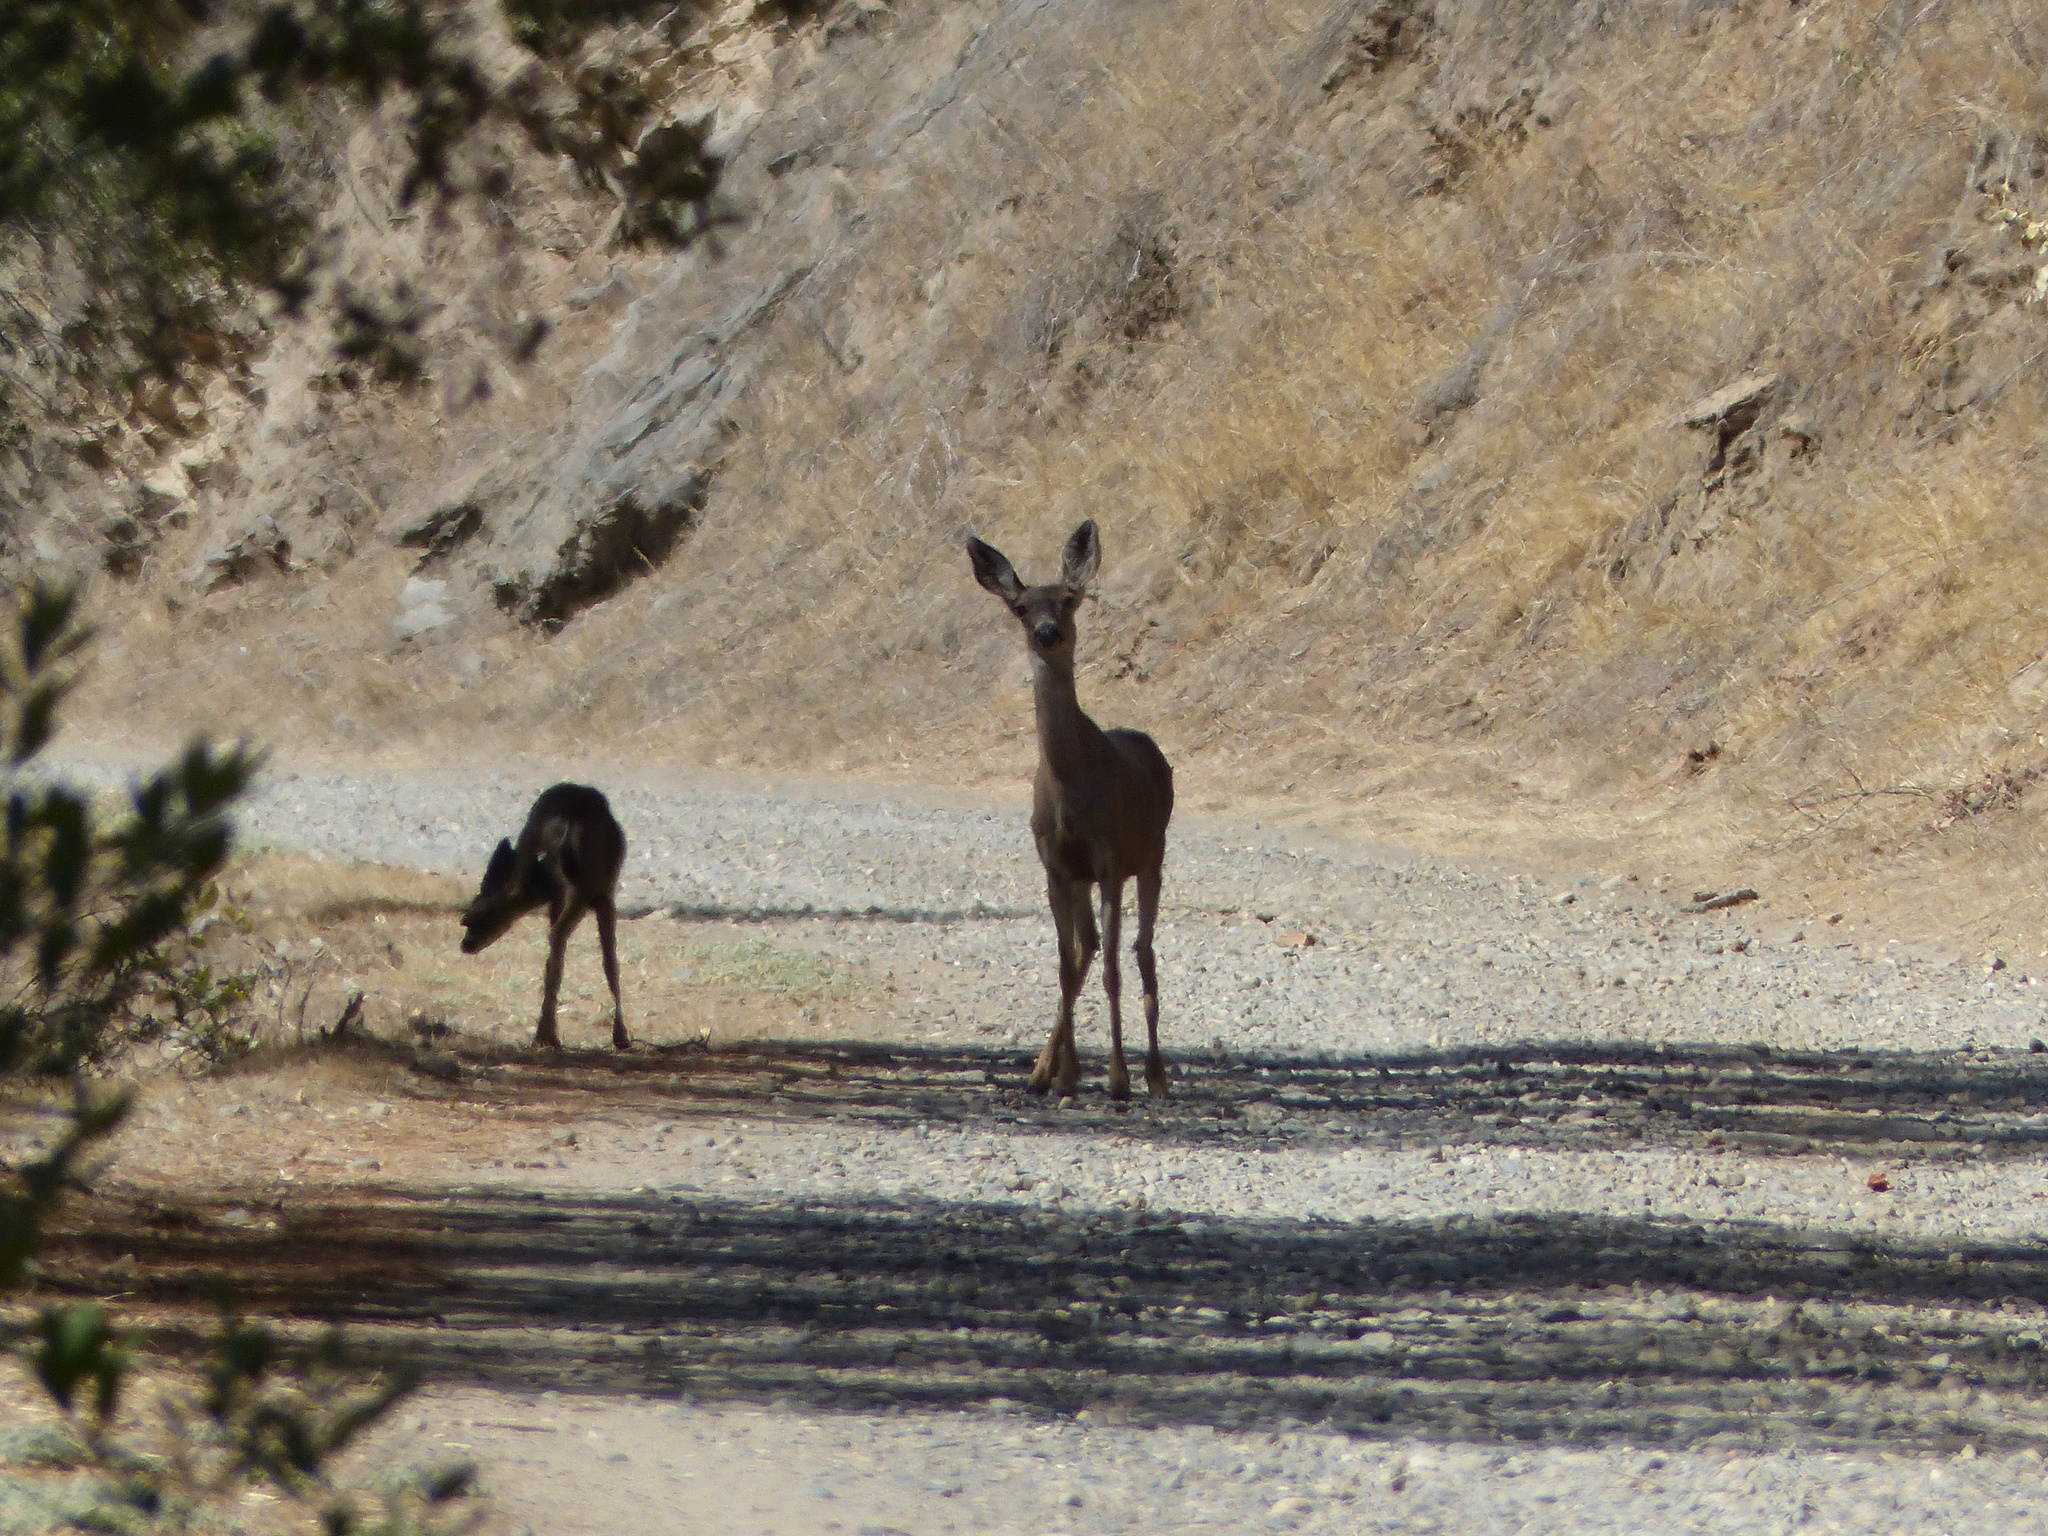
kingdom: Animalia
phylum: Chordata
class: Mammalia
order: Artiodactyla
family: Cervidae
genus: Odocoileus
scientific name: Odocoileus hemionus
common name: Mule deer
